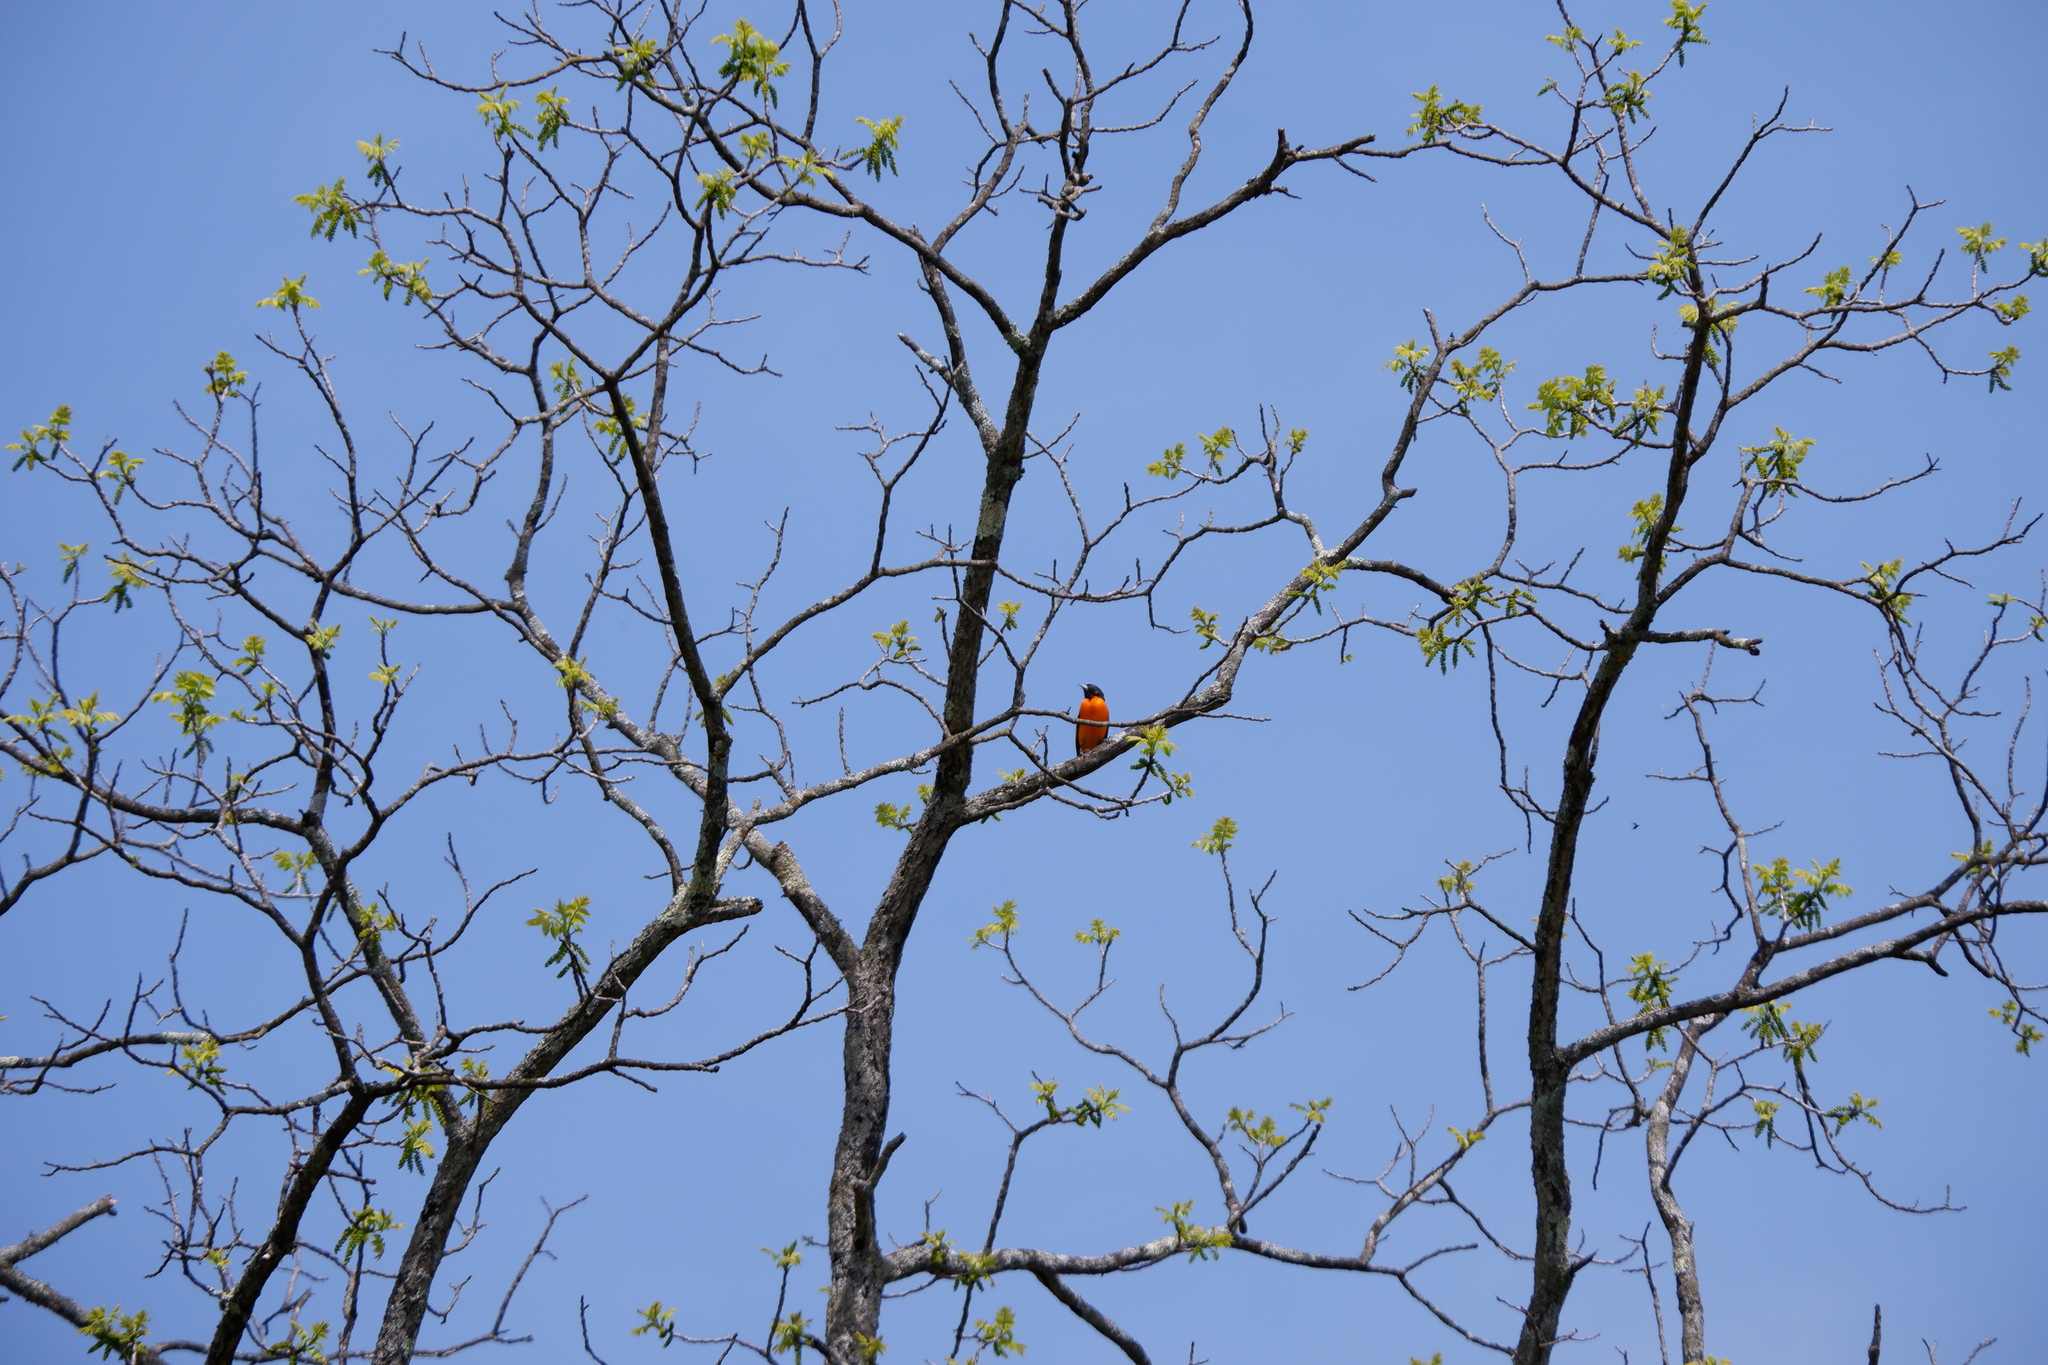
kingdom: Animalia
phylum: Chordata
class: Aves
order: Passeriformes
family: Icteridae
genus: Icterus
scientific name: Icterus galbula
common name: Baltimore oriole
